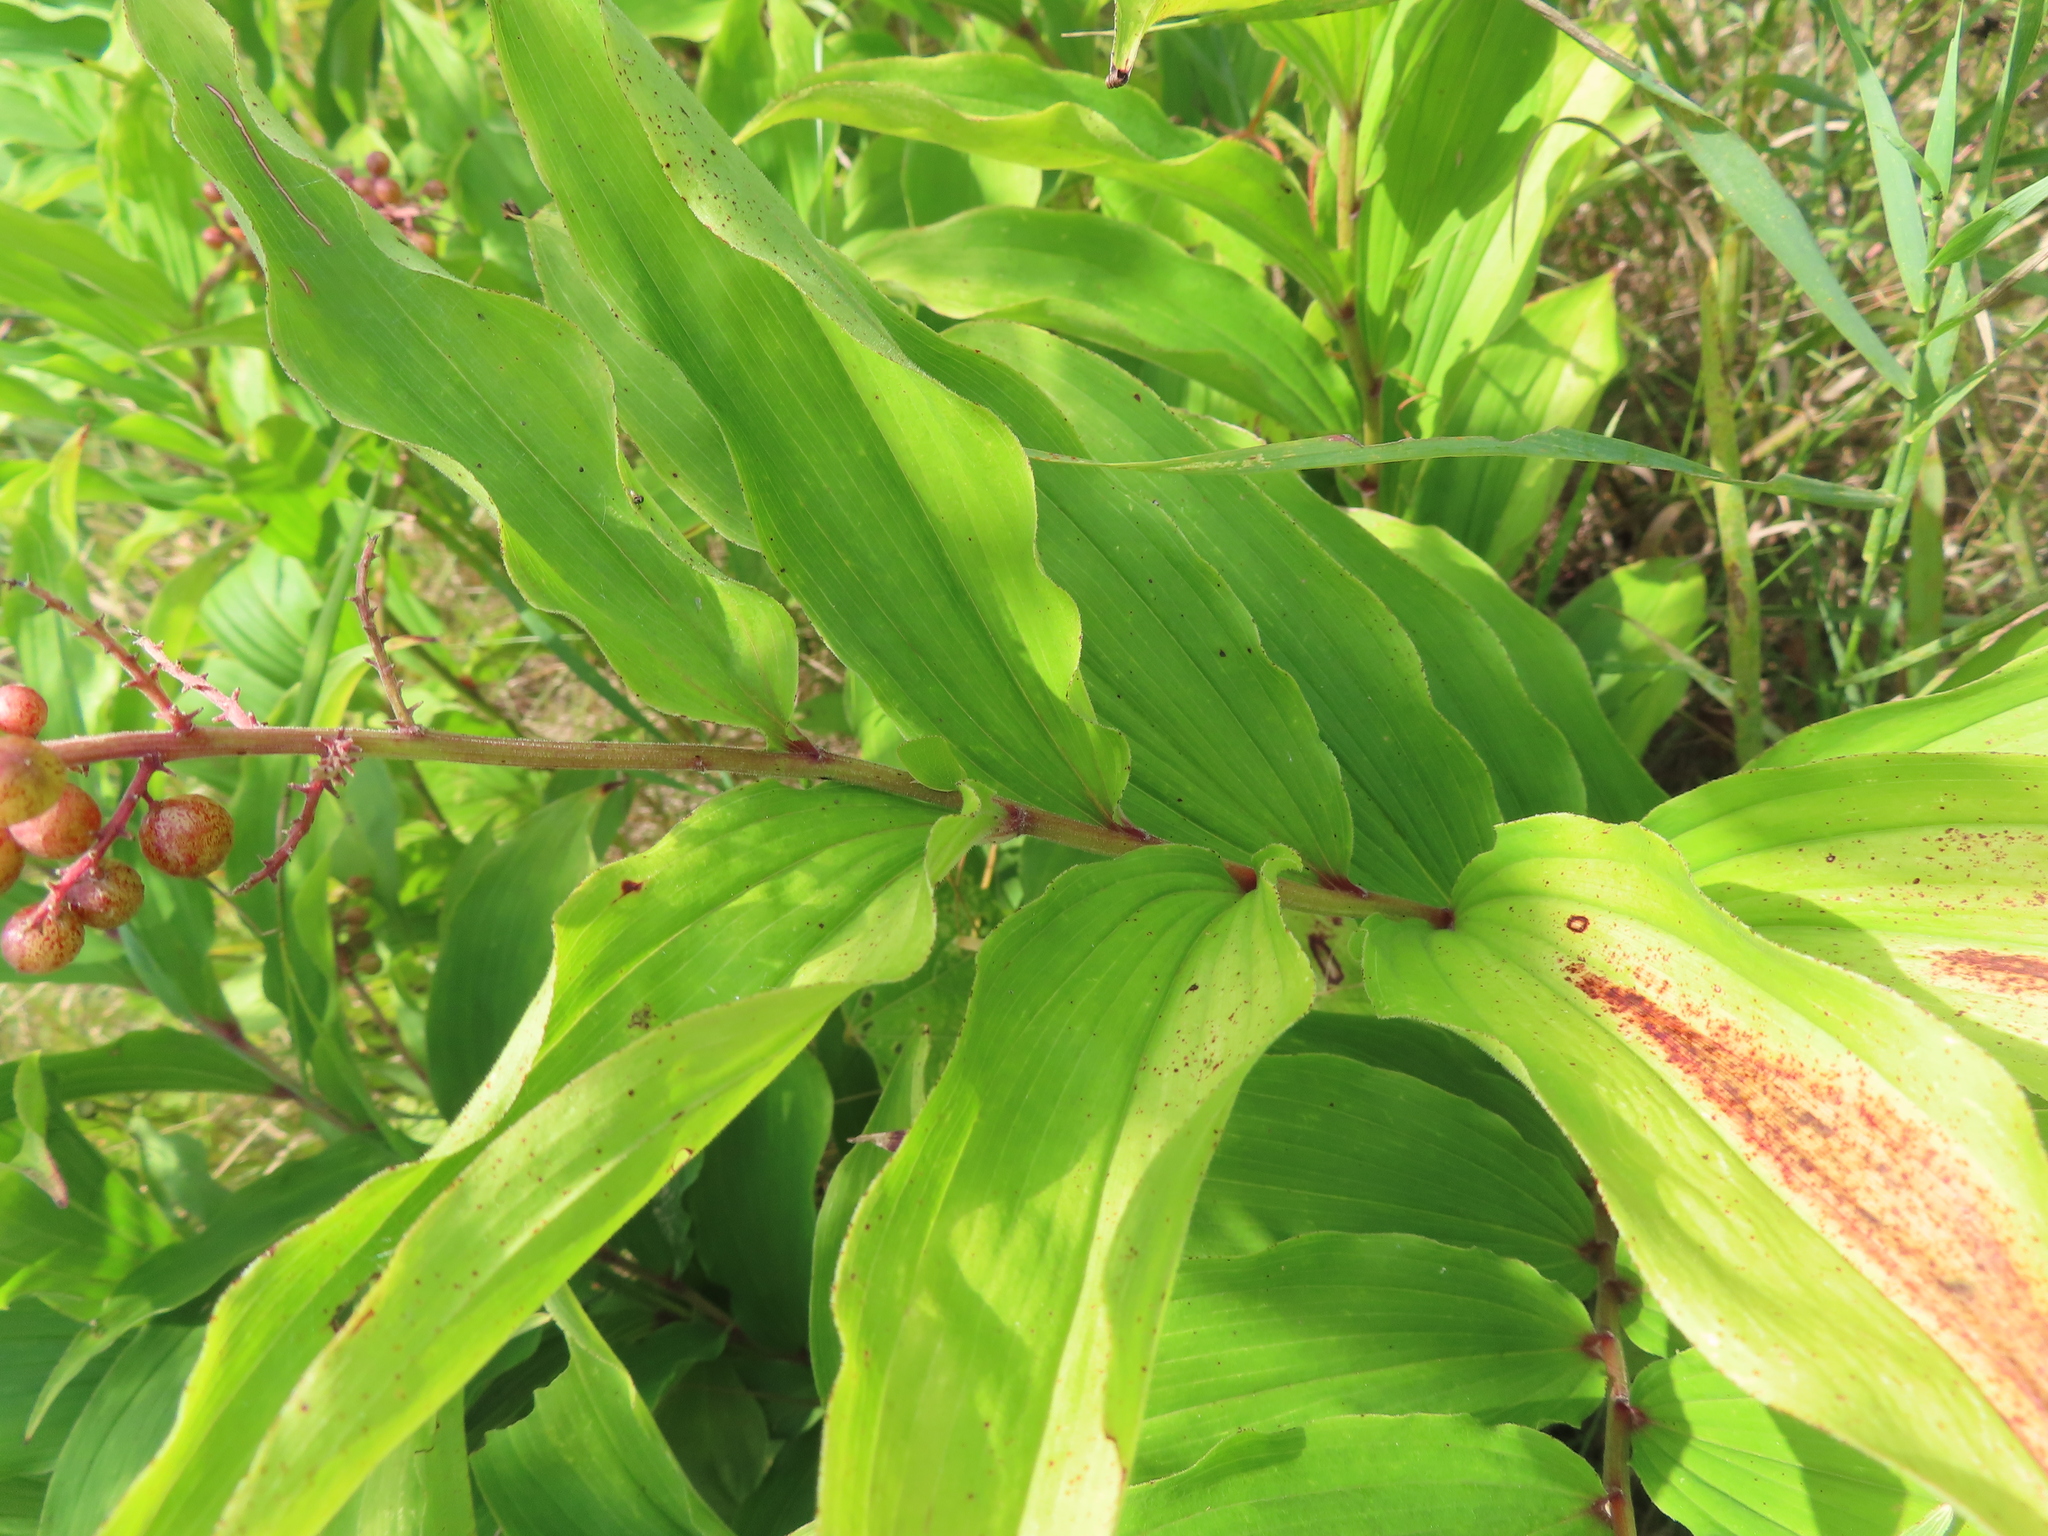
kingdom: Plantae
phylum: Tracheophyta
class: Liliopsida
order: Asparagales
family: Asparagaceae
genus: Maianthemum
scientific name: Maianthemum racemosum
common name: False spikenard
